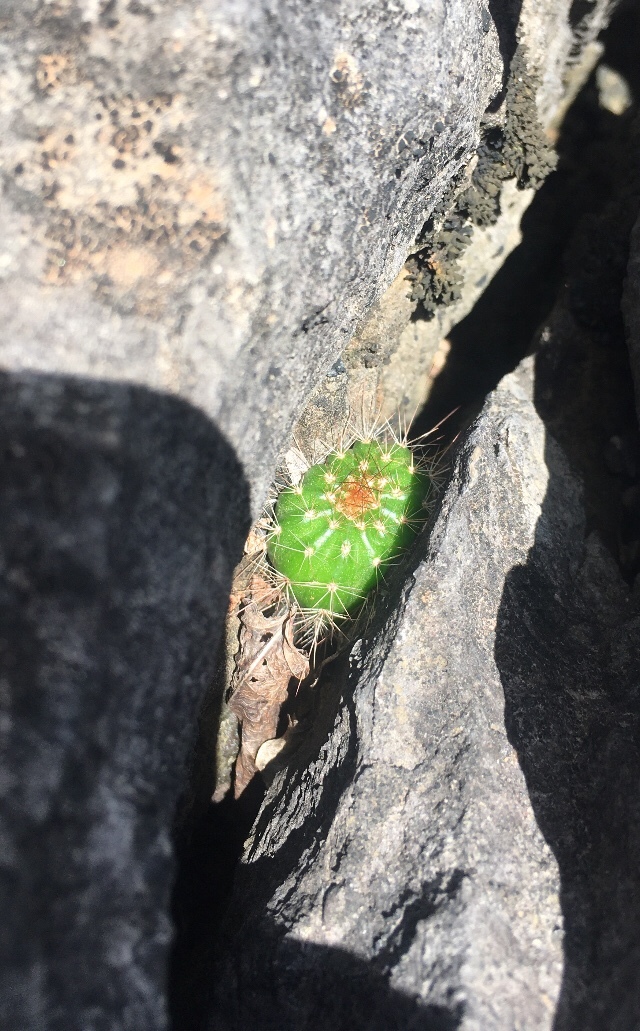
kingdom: Plantae
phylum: Tracheophyta
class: Magnoliopsida
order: Caryophyllales
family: Cactaceae
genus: Coleocephalocereus
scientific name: Coleocephalocereus
